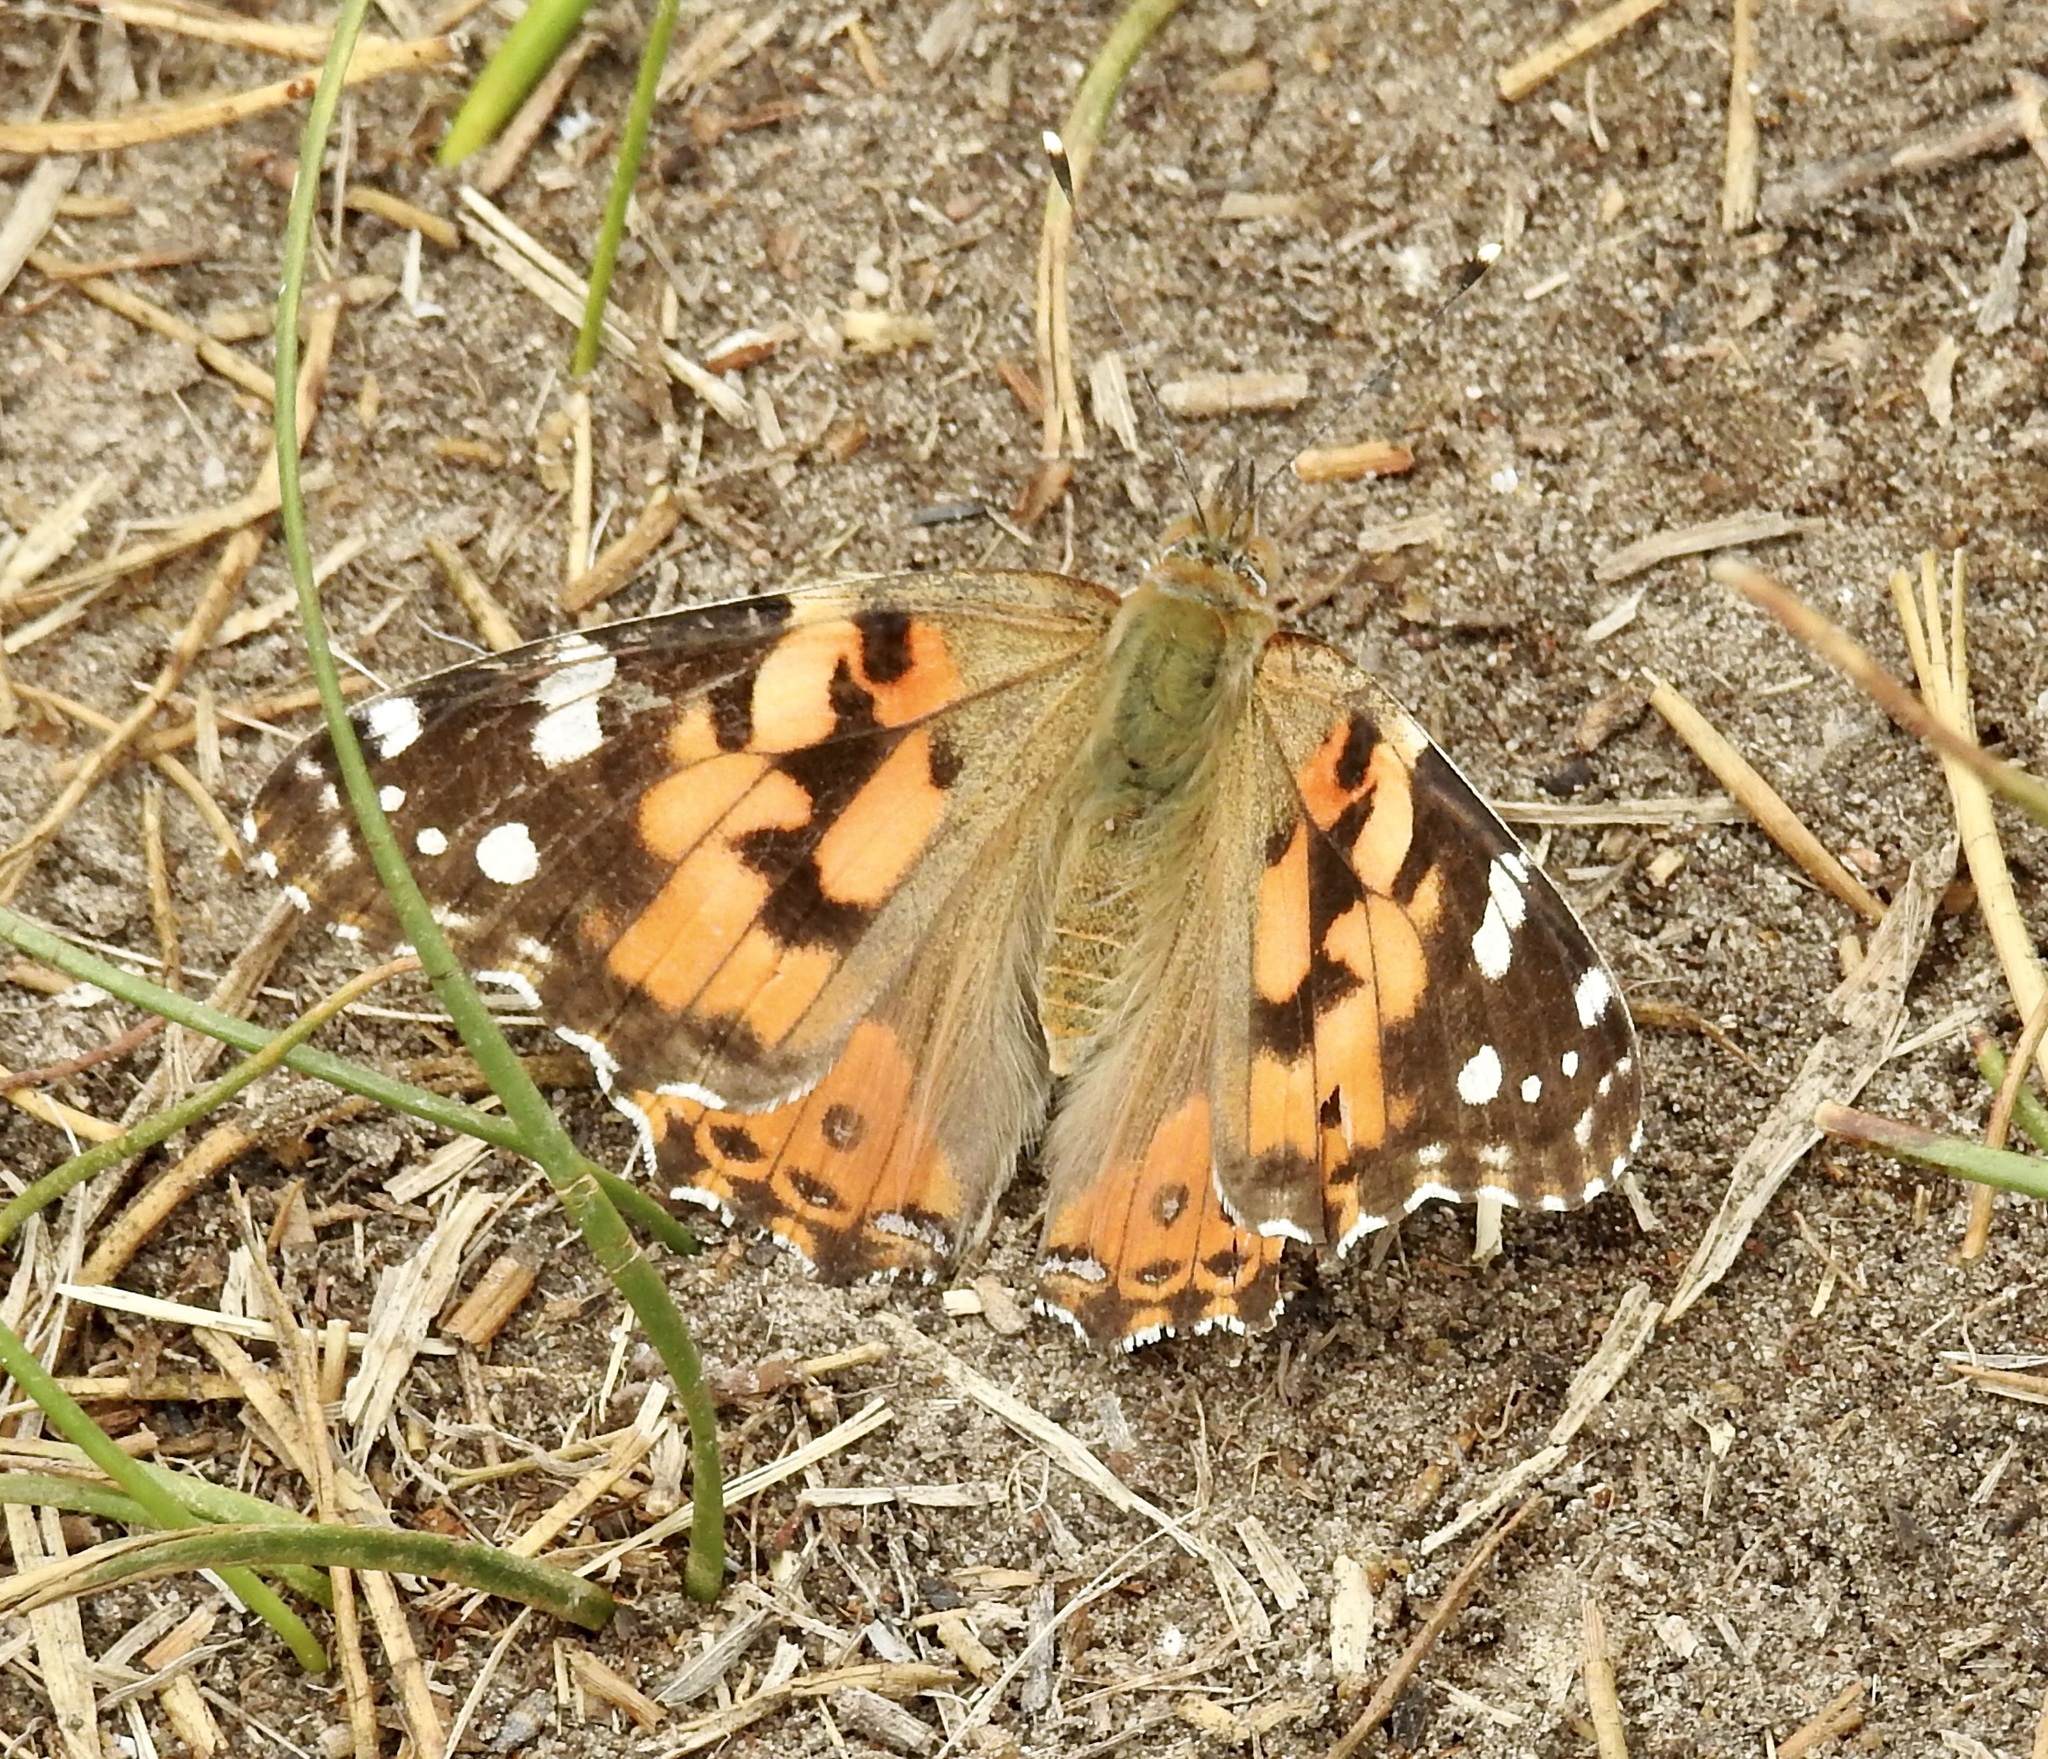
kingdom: Animalia
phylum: Arthropoda
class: Insecta
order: Lepidoptera
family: Nymphalidae
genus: Vanessa
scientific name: Vanessa cardui
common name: Painted lady
